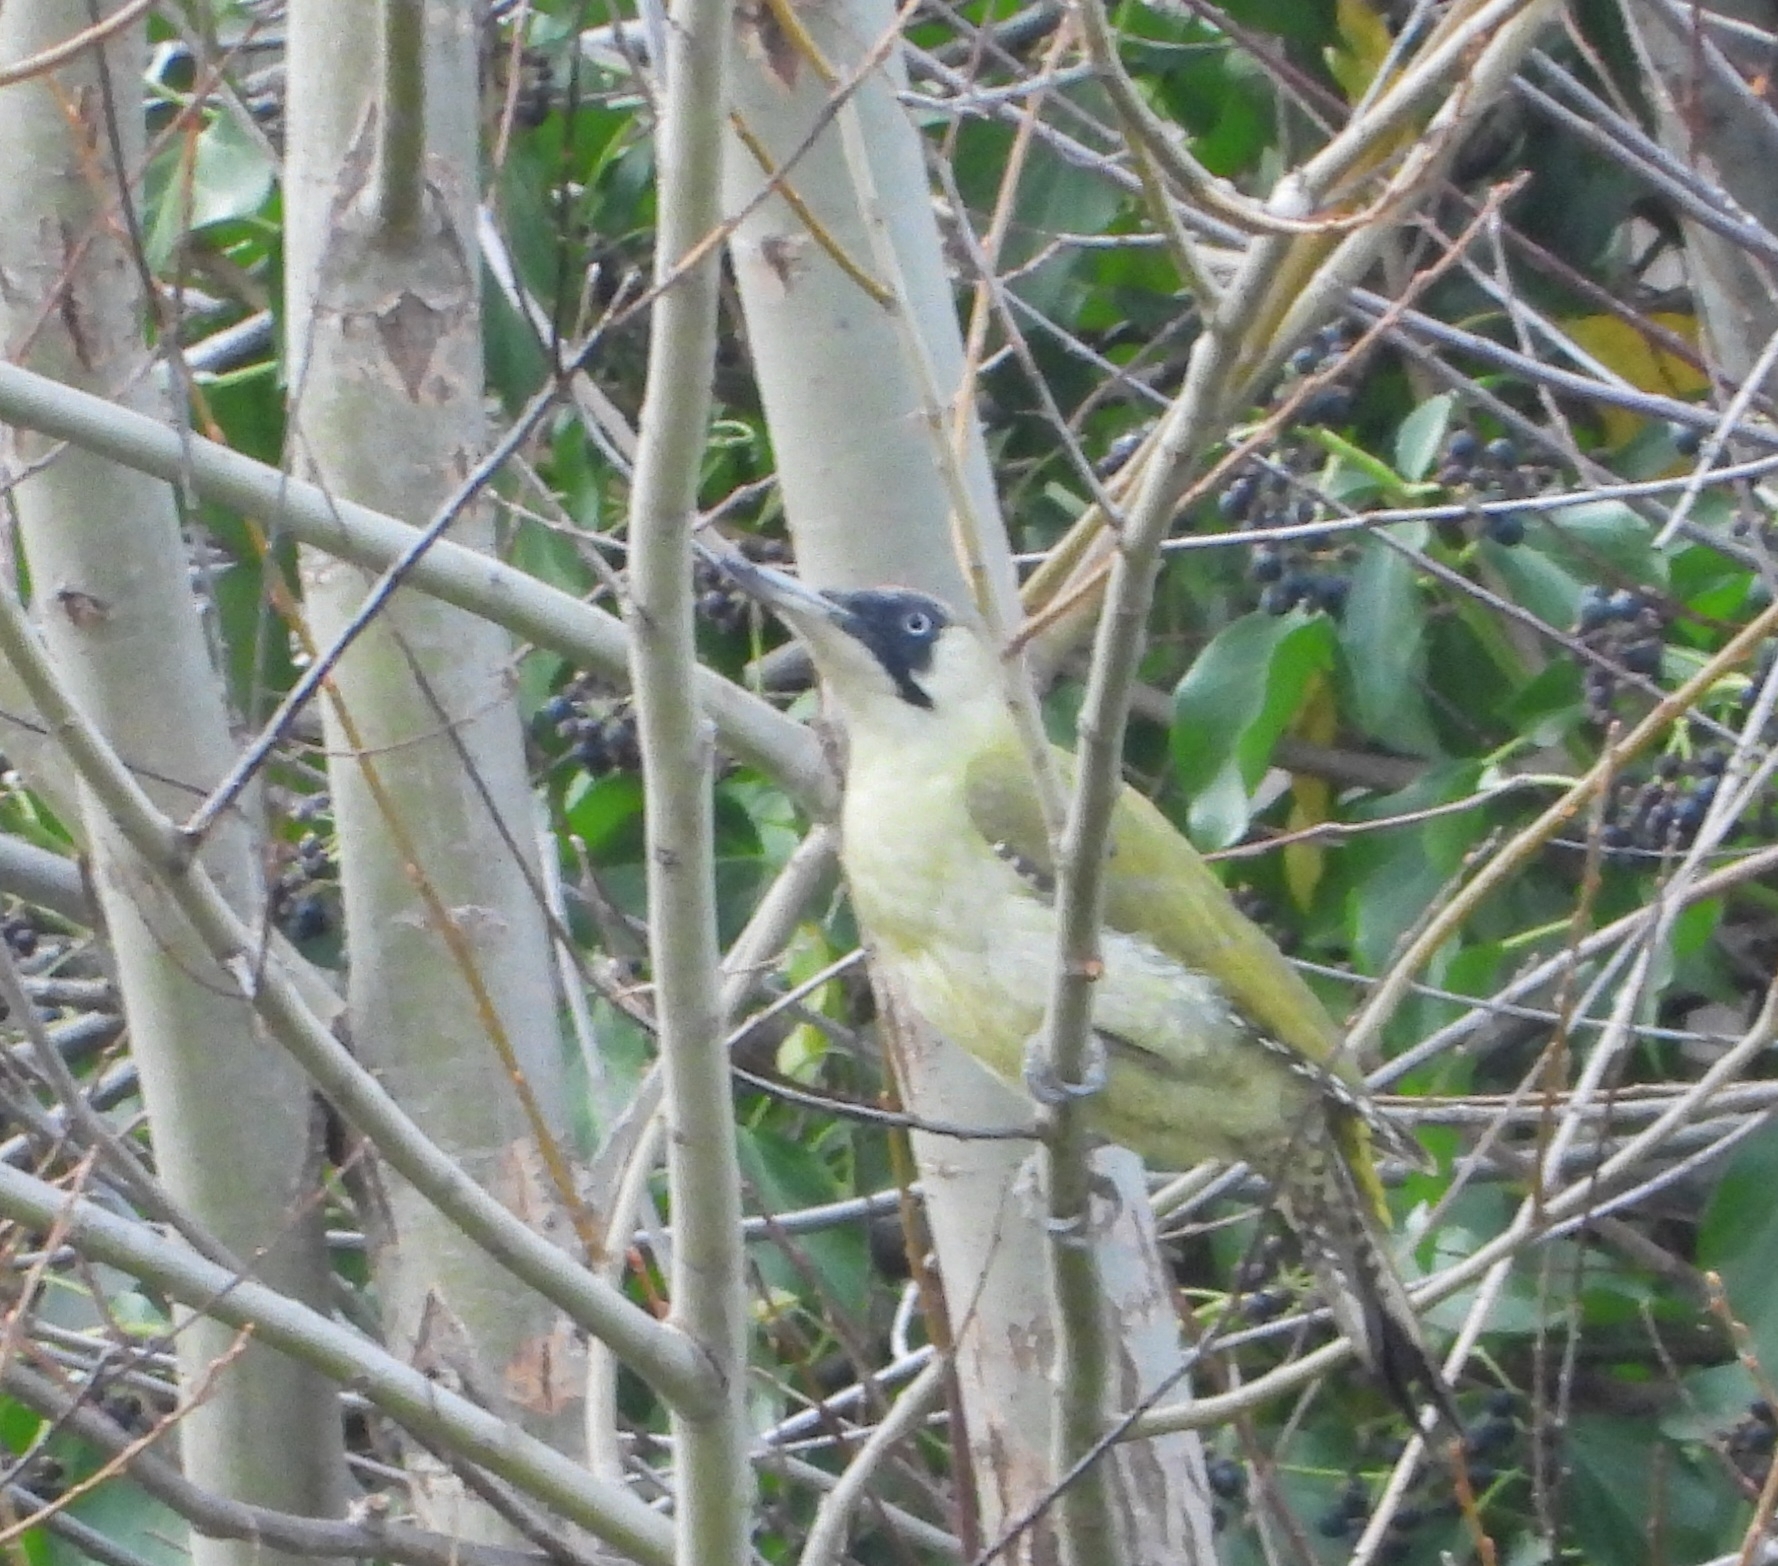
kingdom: Animalia
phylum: Chordata
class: Aves
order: Piciformes
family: Picidae
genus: Picus
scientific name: Picus viridis
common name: European green woodpecker
